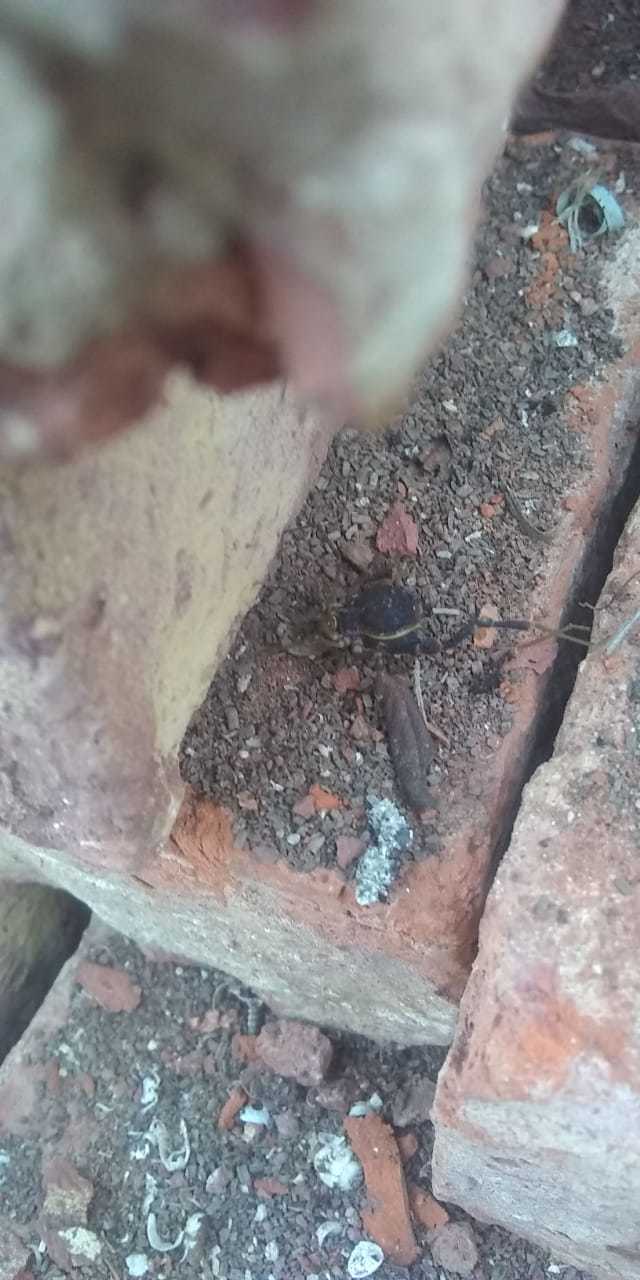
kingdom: Animalia
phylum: Arthropoda
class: Arachnida
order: Opiliones
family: Gonyleptidae
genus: Acanthopachylus
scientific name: Acanthopachylus robustus
